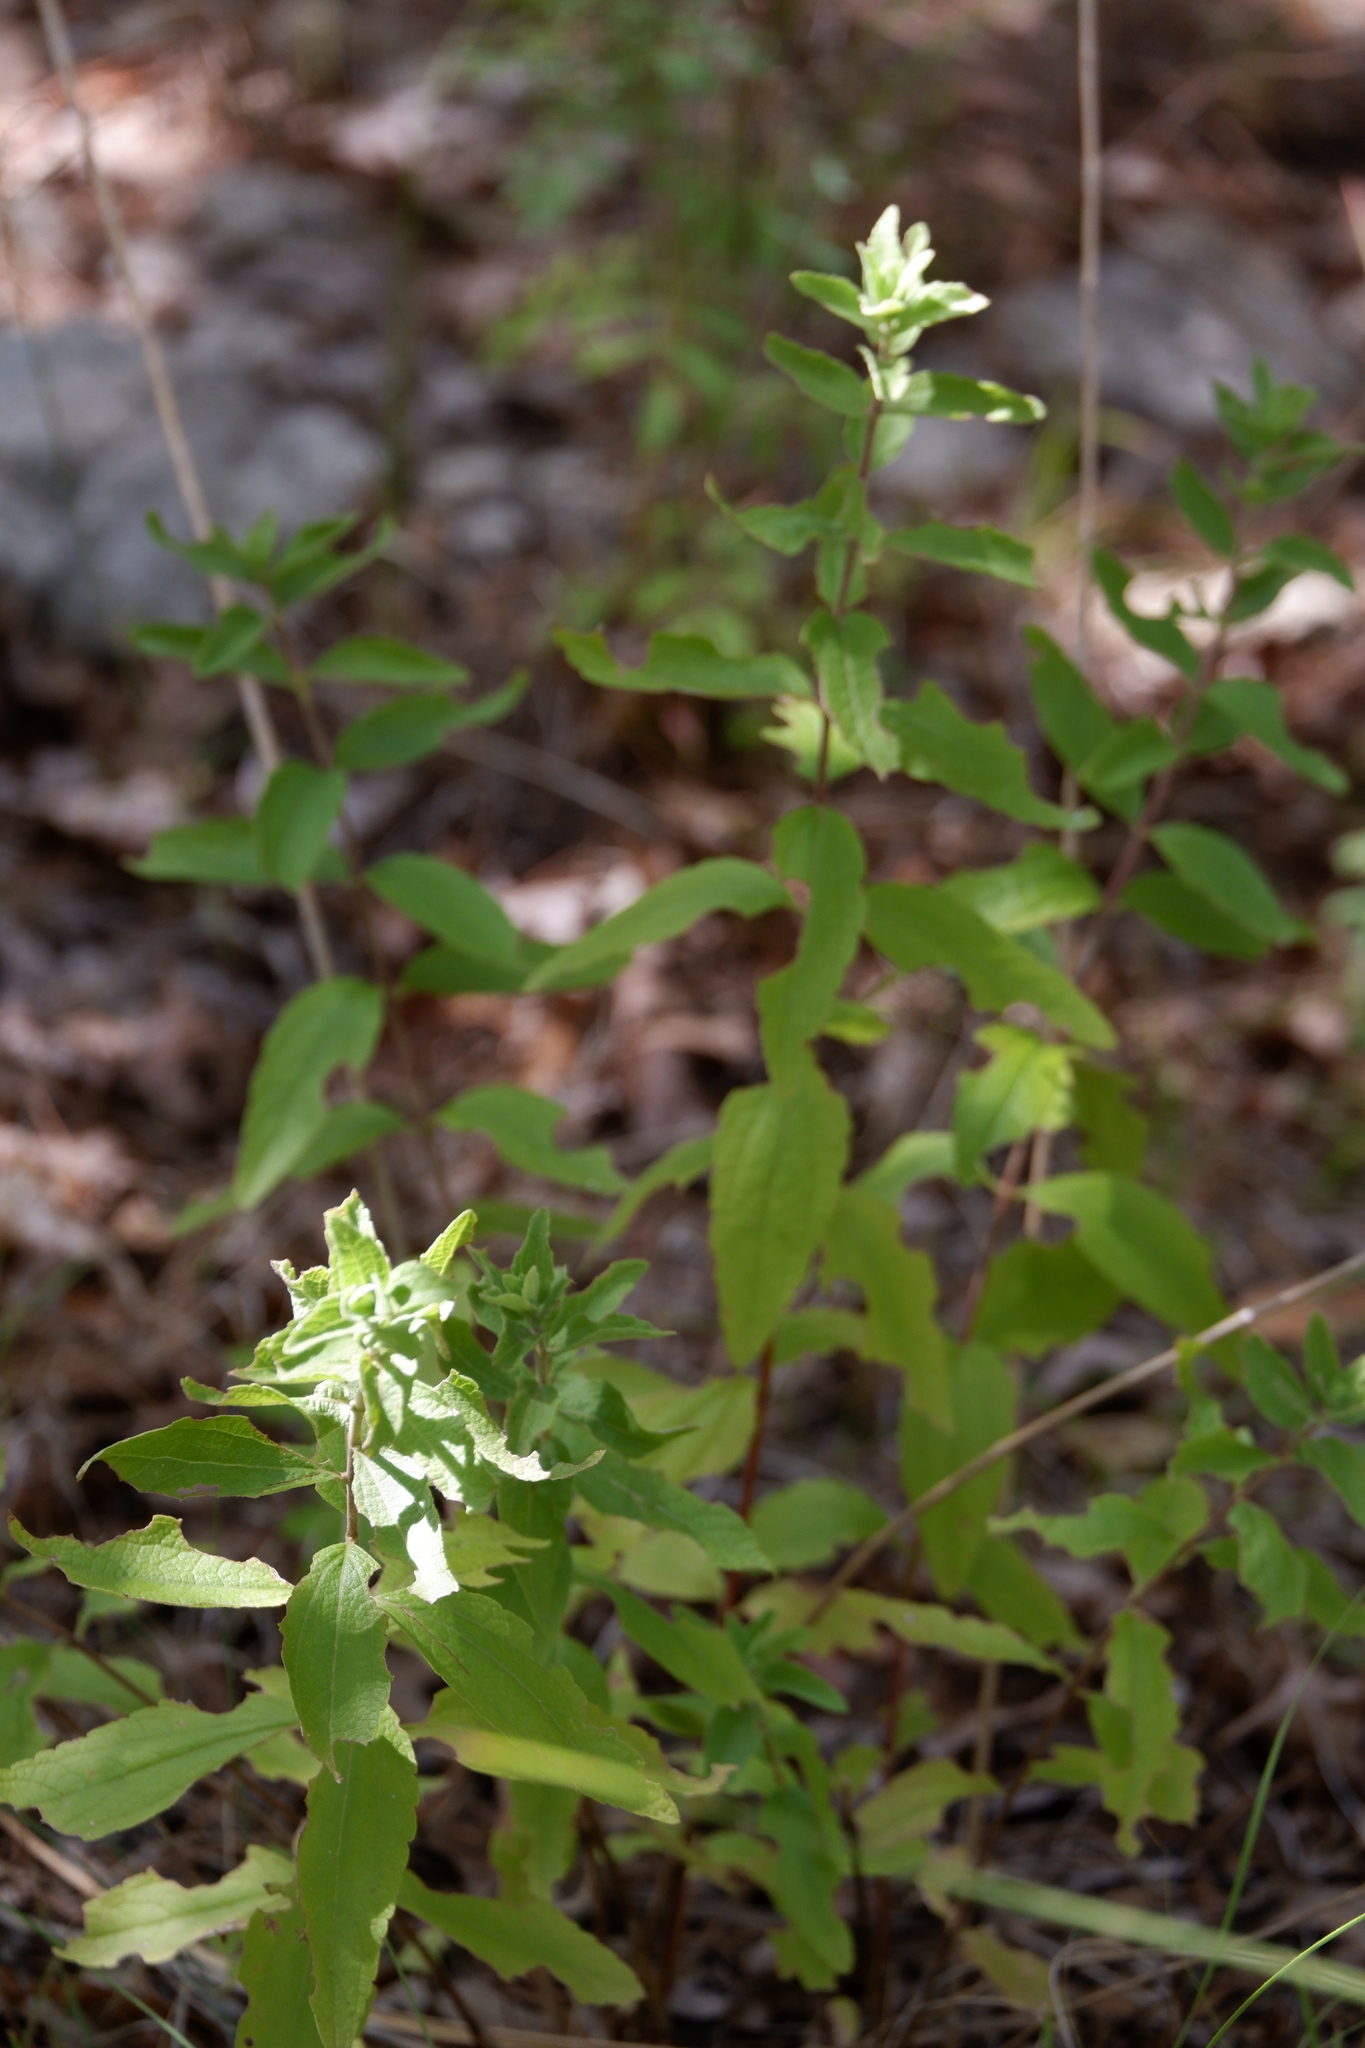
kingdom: Plantae
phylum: Tracheophyta
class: Magnoliopsida
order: Asterales
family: Asteraceae
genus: Brickellia
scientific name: Brickellia cylindracea
